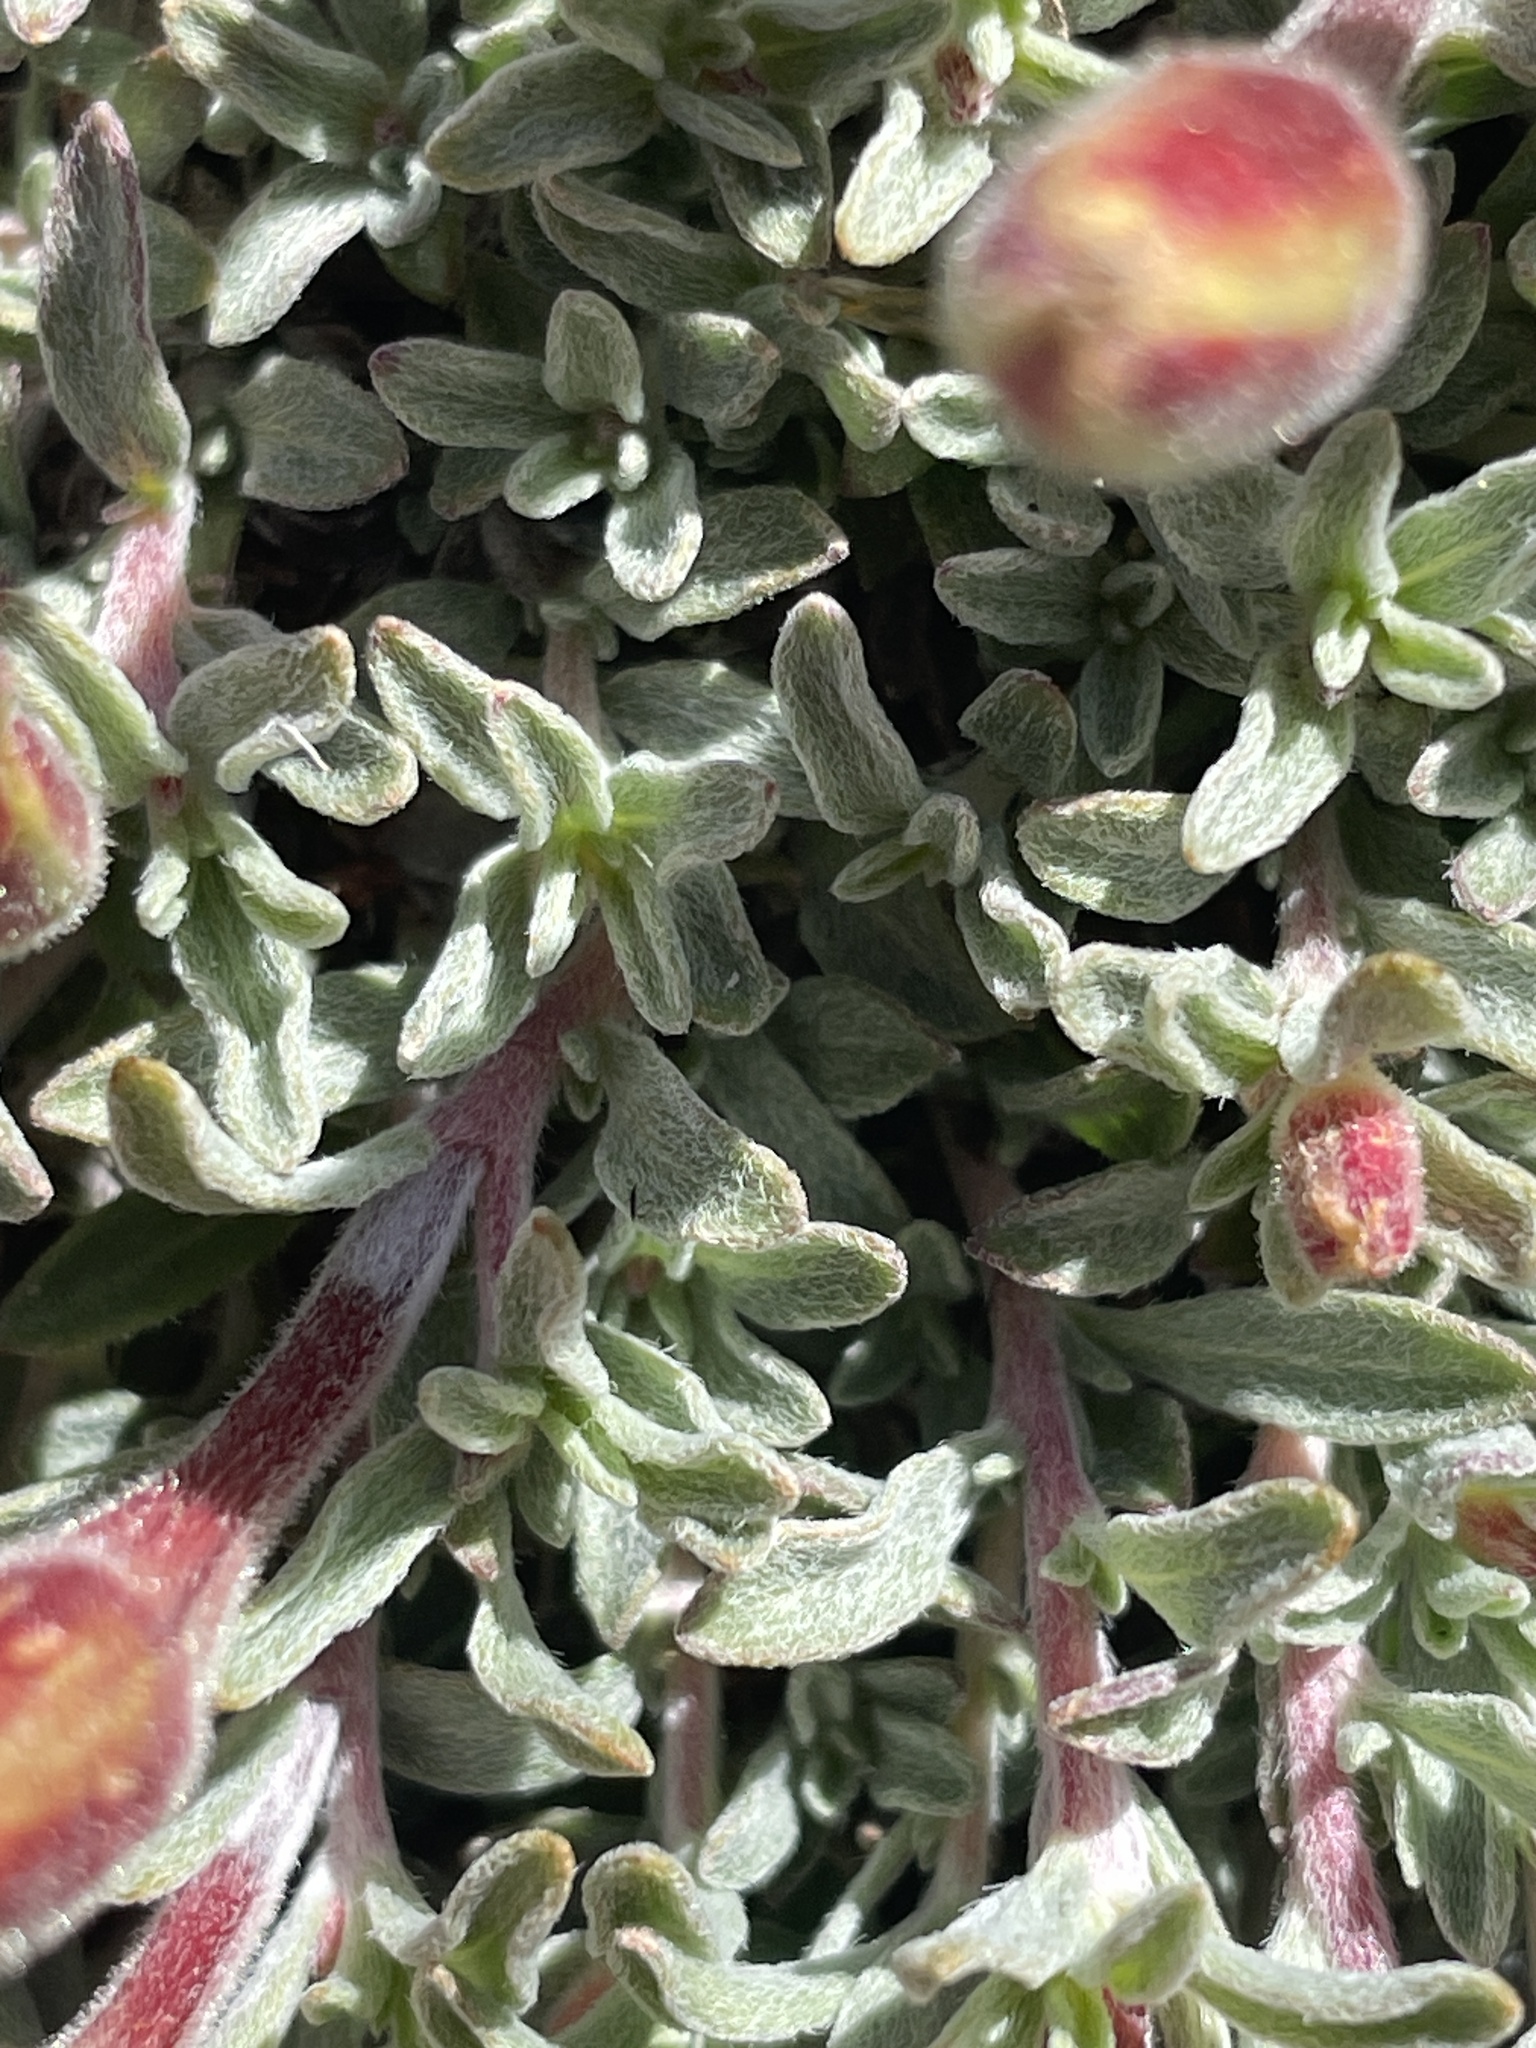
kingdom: Plantae
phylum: Tracheophyta
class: Magnoliopsida
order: Myrtales
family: Onagraceae
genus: Oenothera
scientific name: Oenothera lavandulifolia
